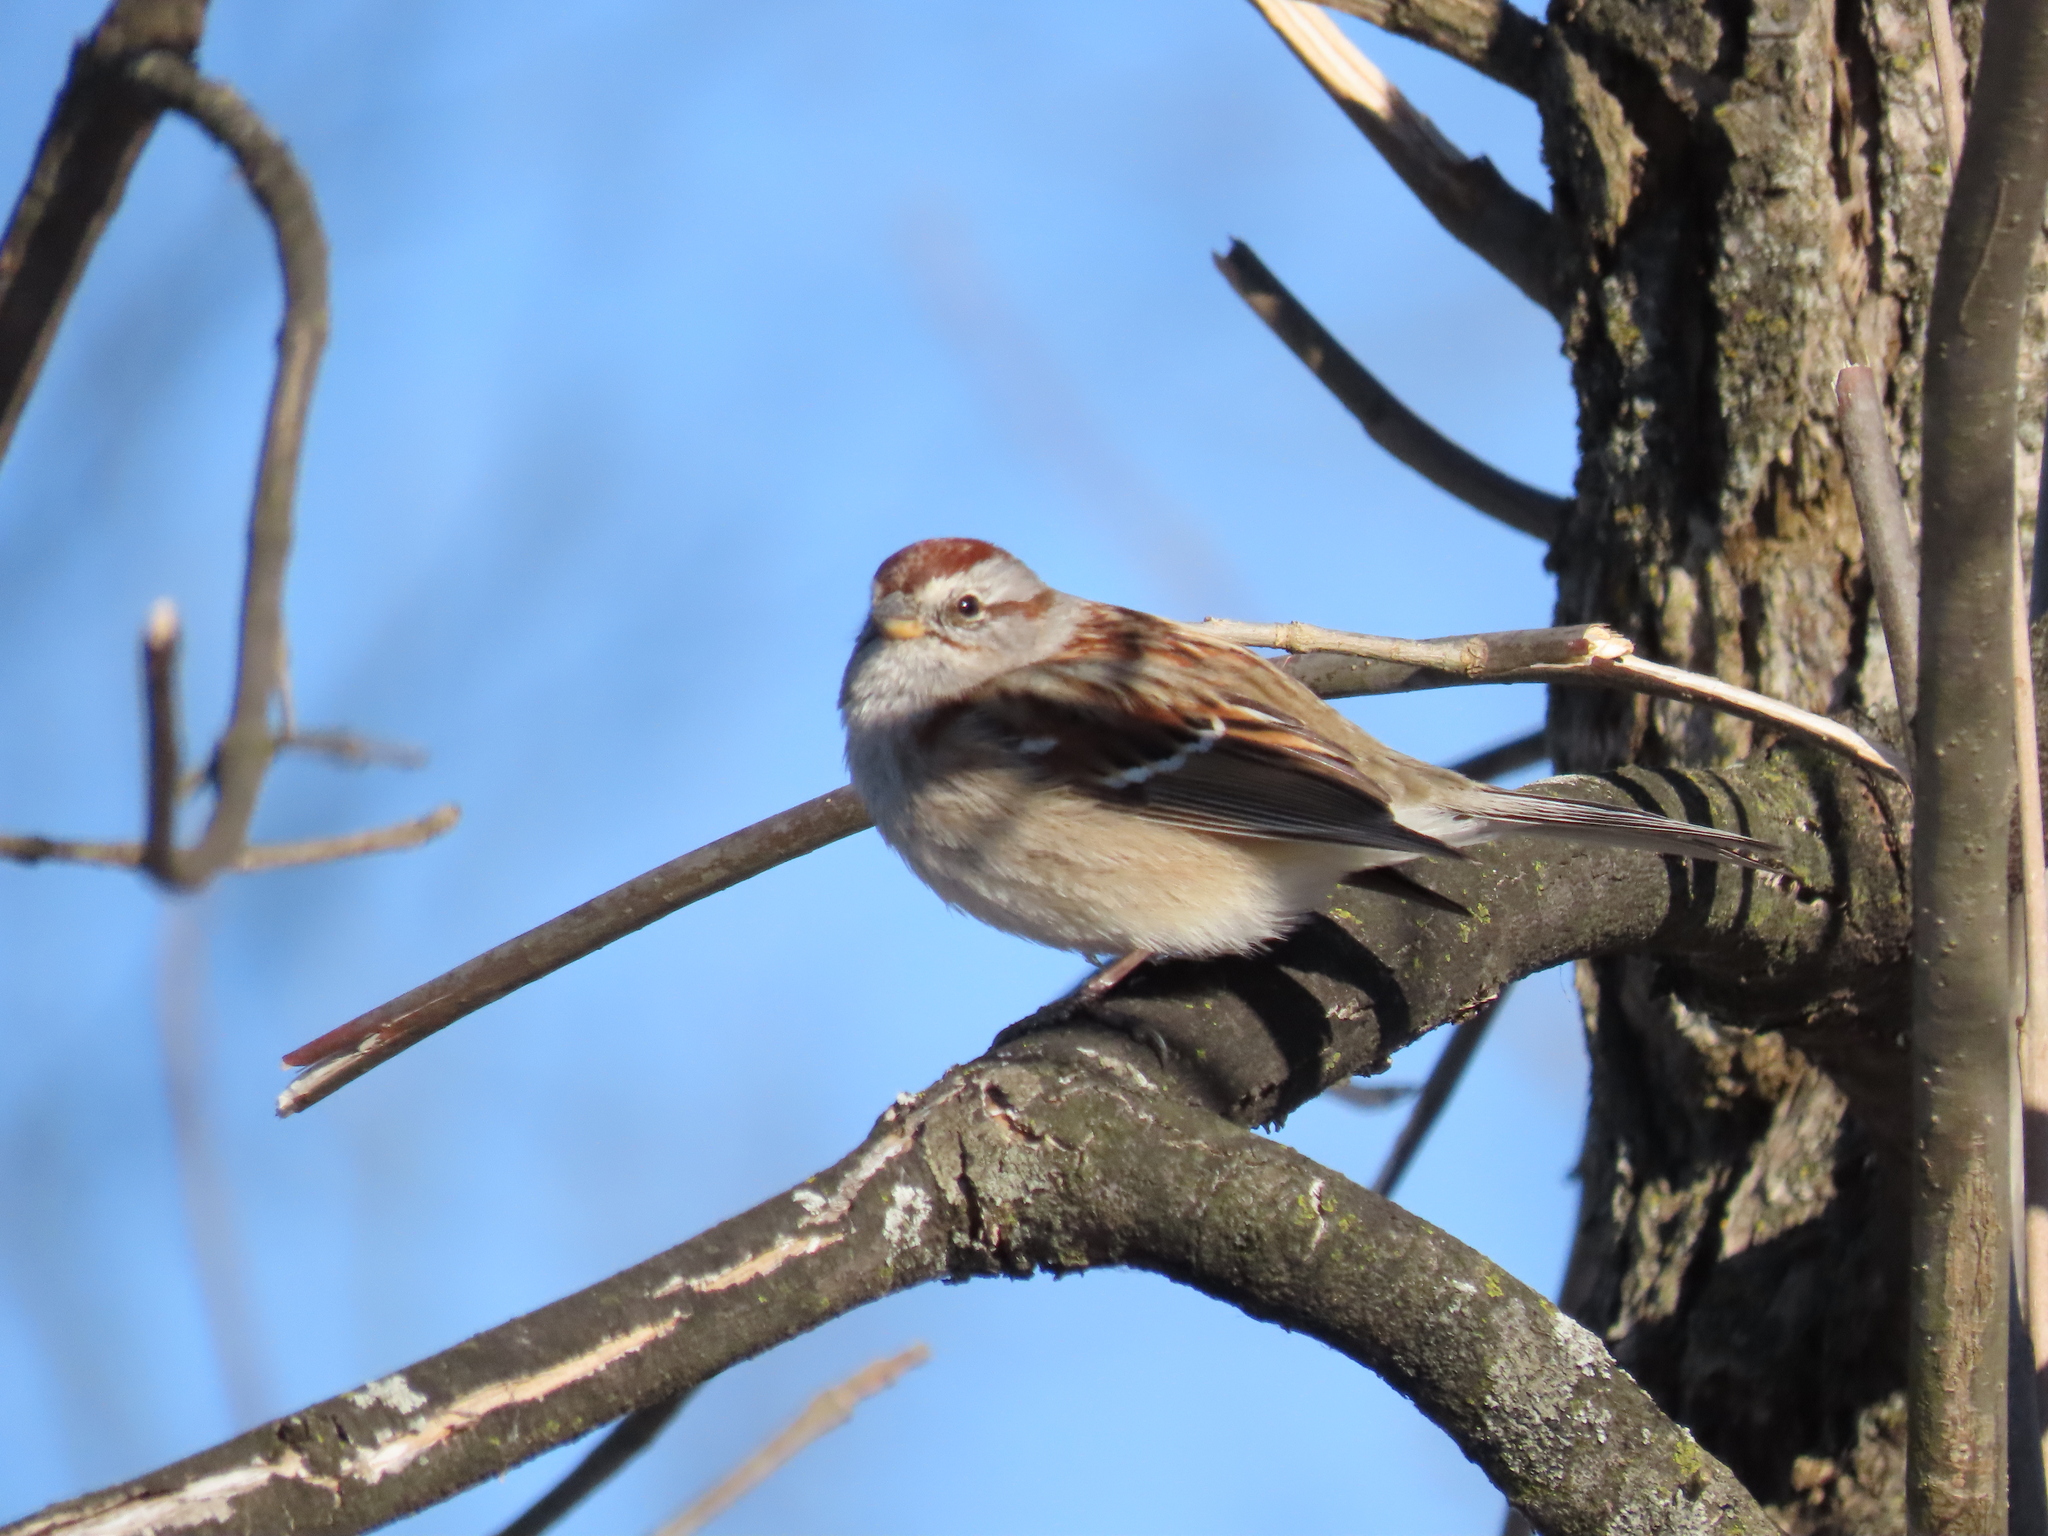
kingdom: Animalia
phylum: Chordata
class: Aves
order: Passeriformes
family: Passerellidae
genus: Spizelloides
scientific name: Spizelloides arborea
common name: American tree sparrow
